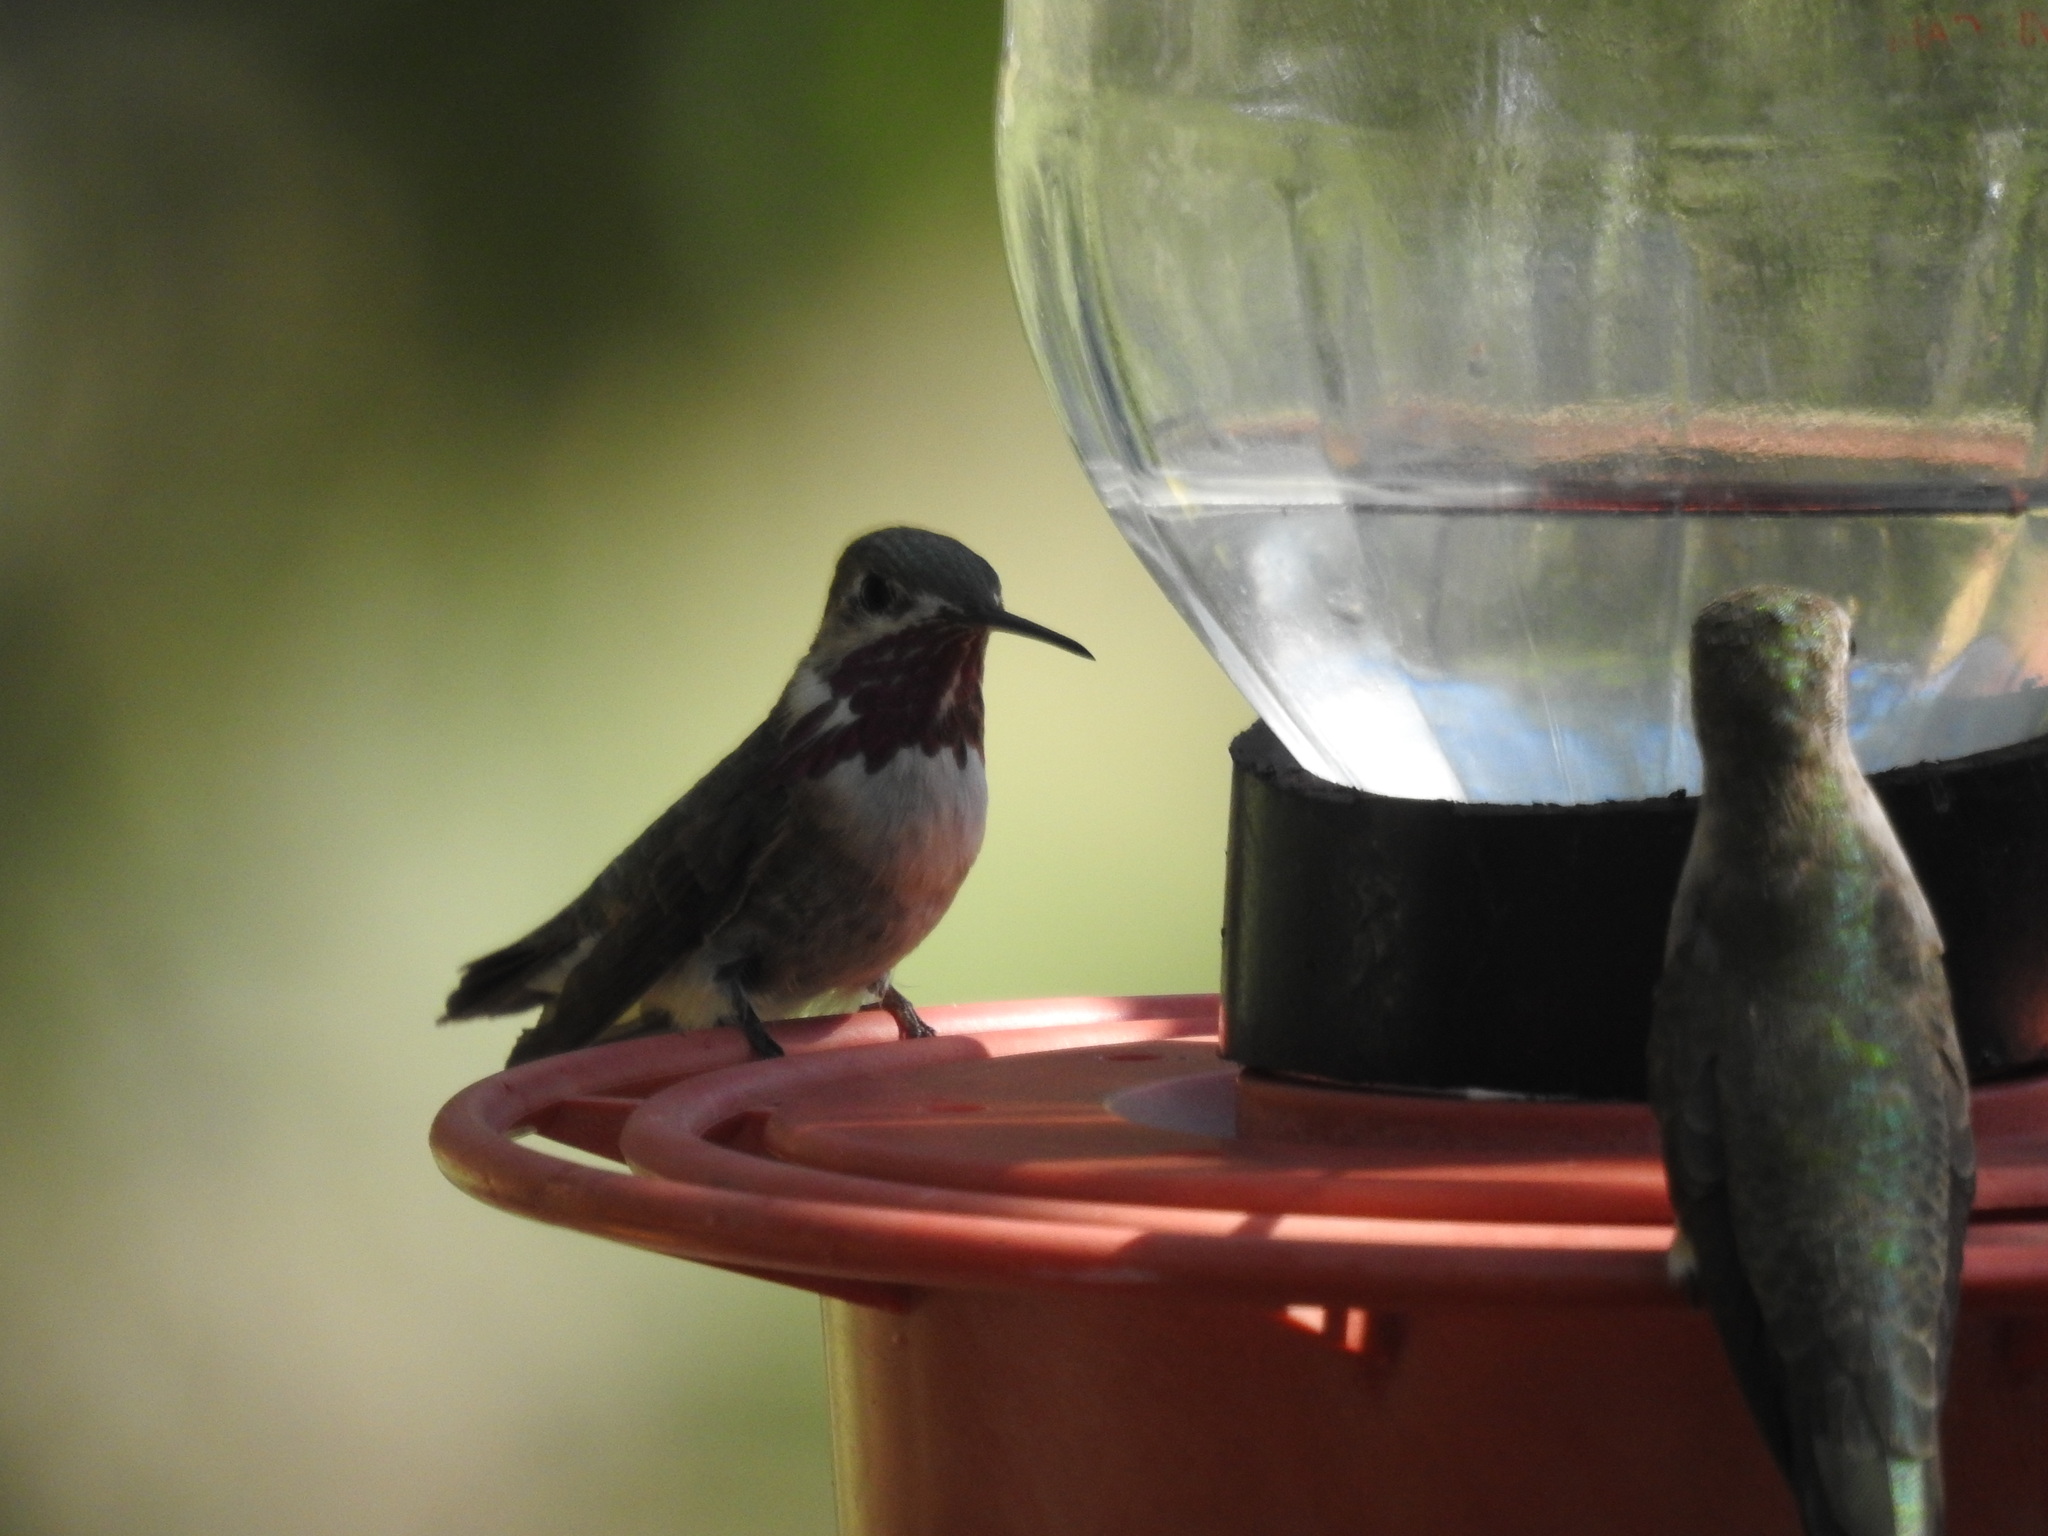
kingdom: Animalia
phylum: Chordata
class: Aves
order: Apodiformes
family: Trochilidae
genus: Selasphorus
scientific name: Selasphorus calliope
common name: Calliope hummingbird
